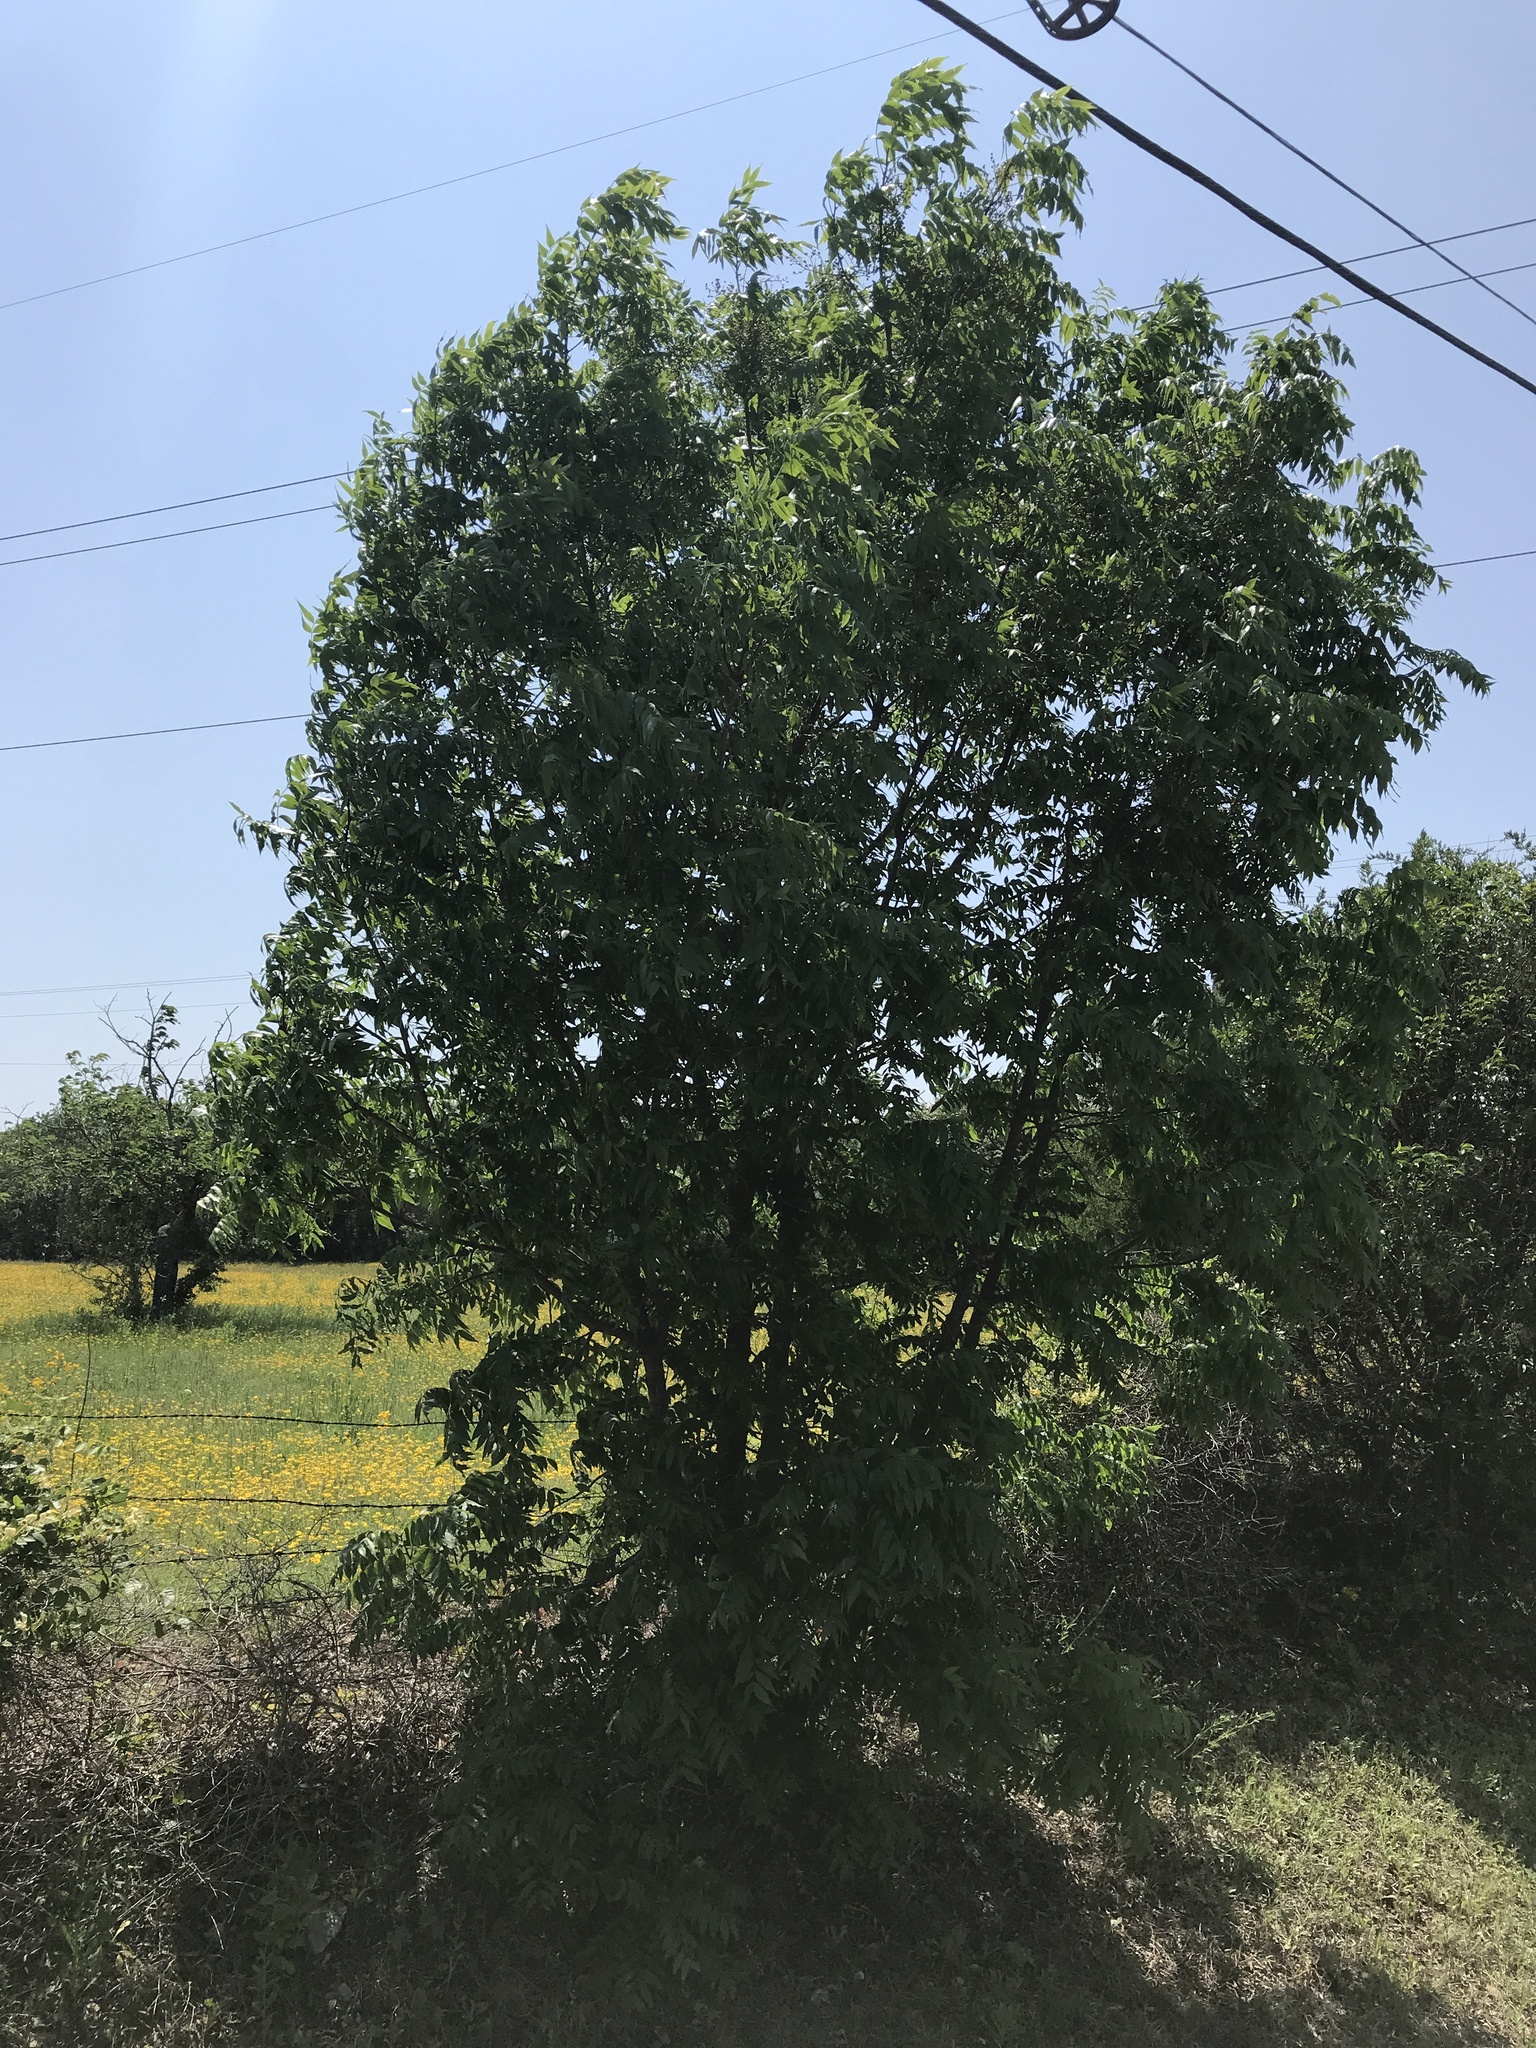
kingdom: Plantae
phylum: Tracheophyta
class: Magnoliopsida
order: Sapindales
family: Anacardiaceae
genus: Pistacia
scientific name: Pistacia chinensis
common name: Chinese pistache
